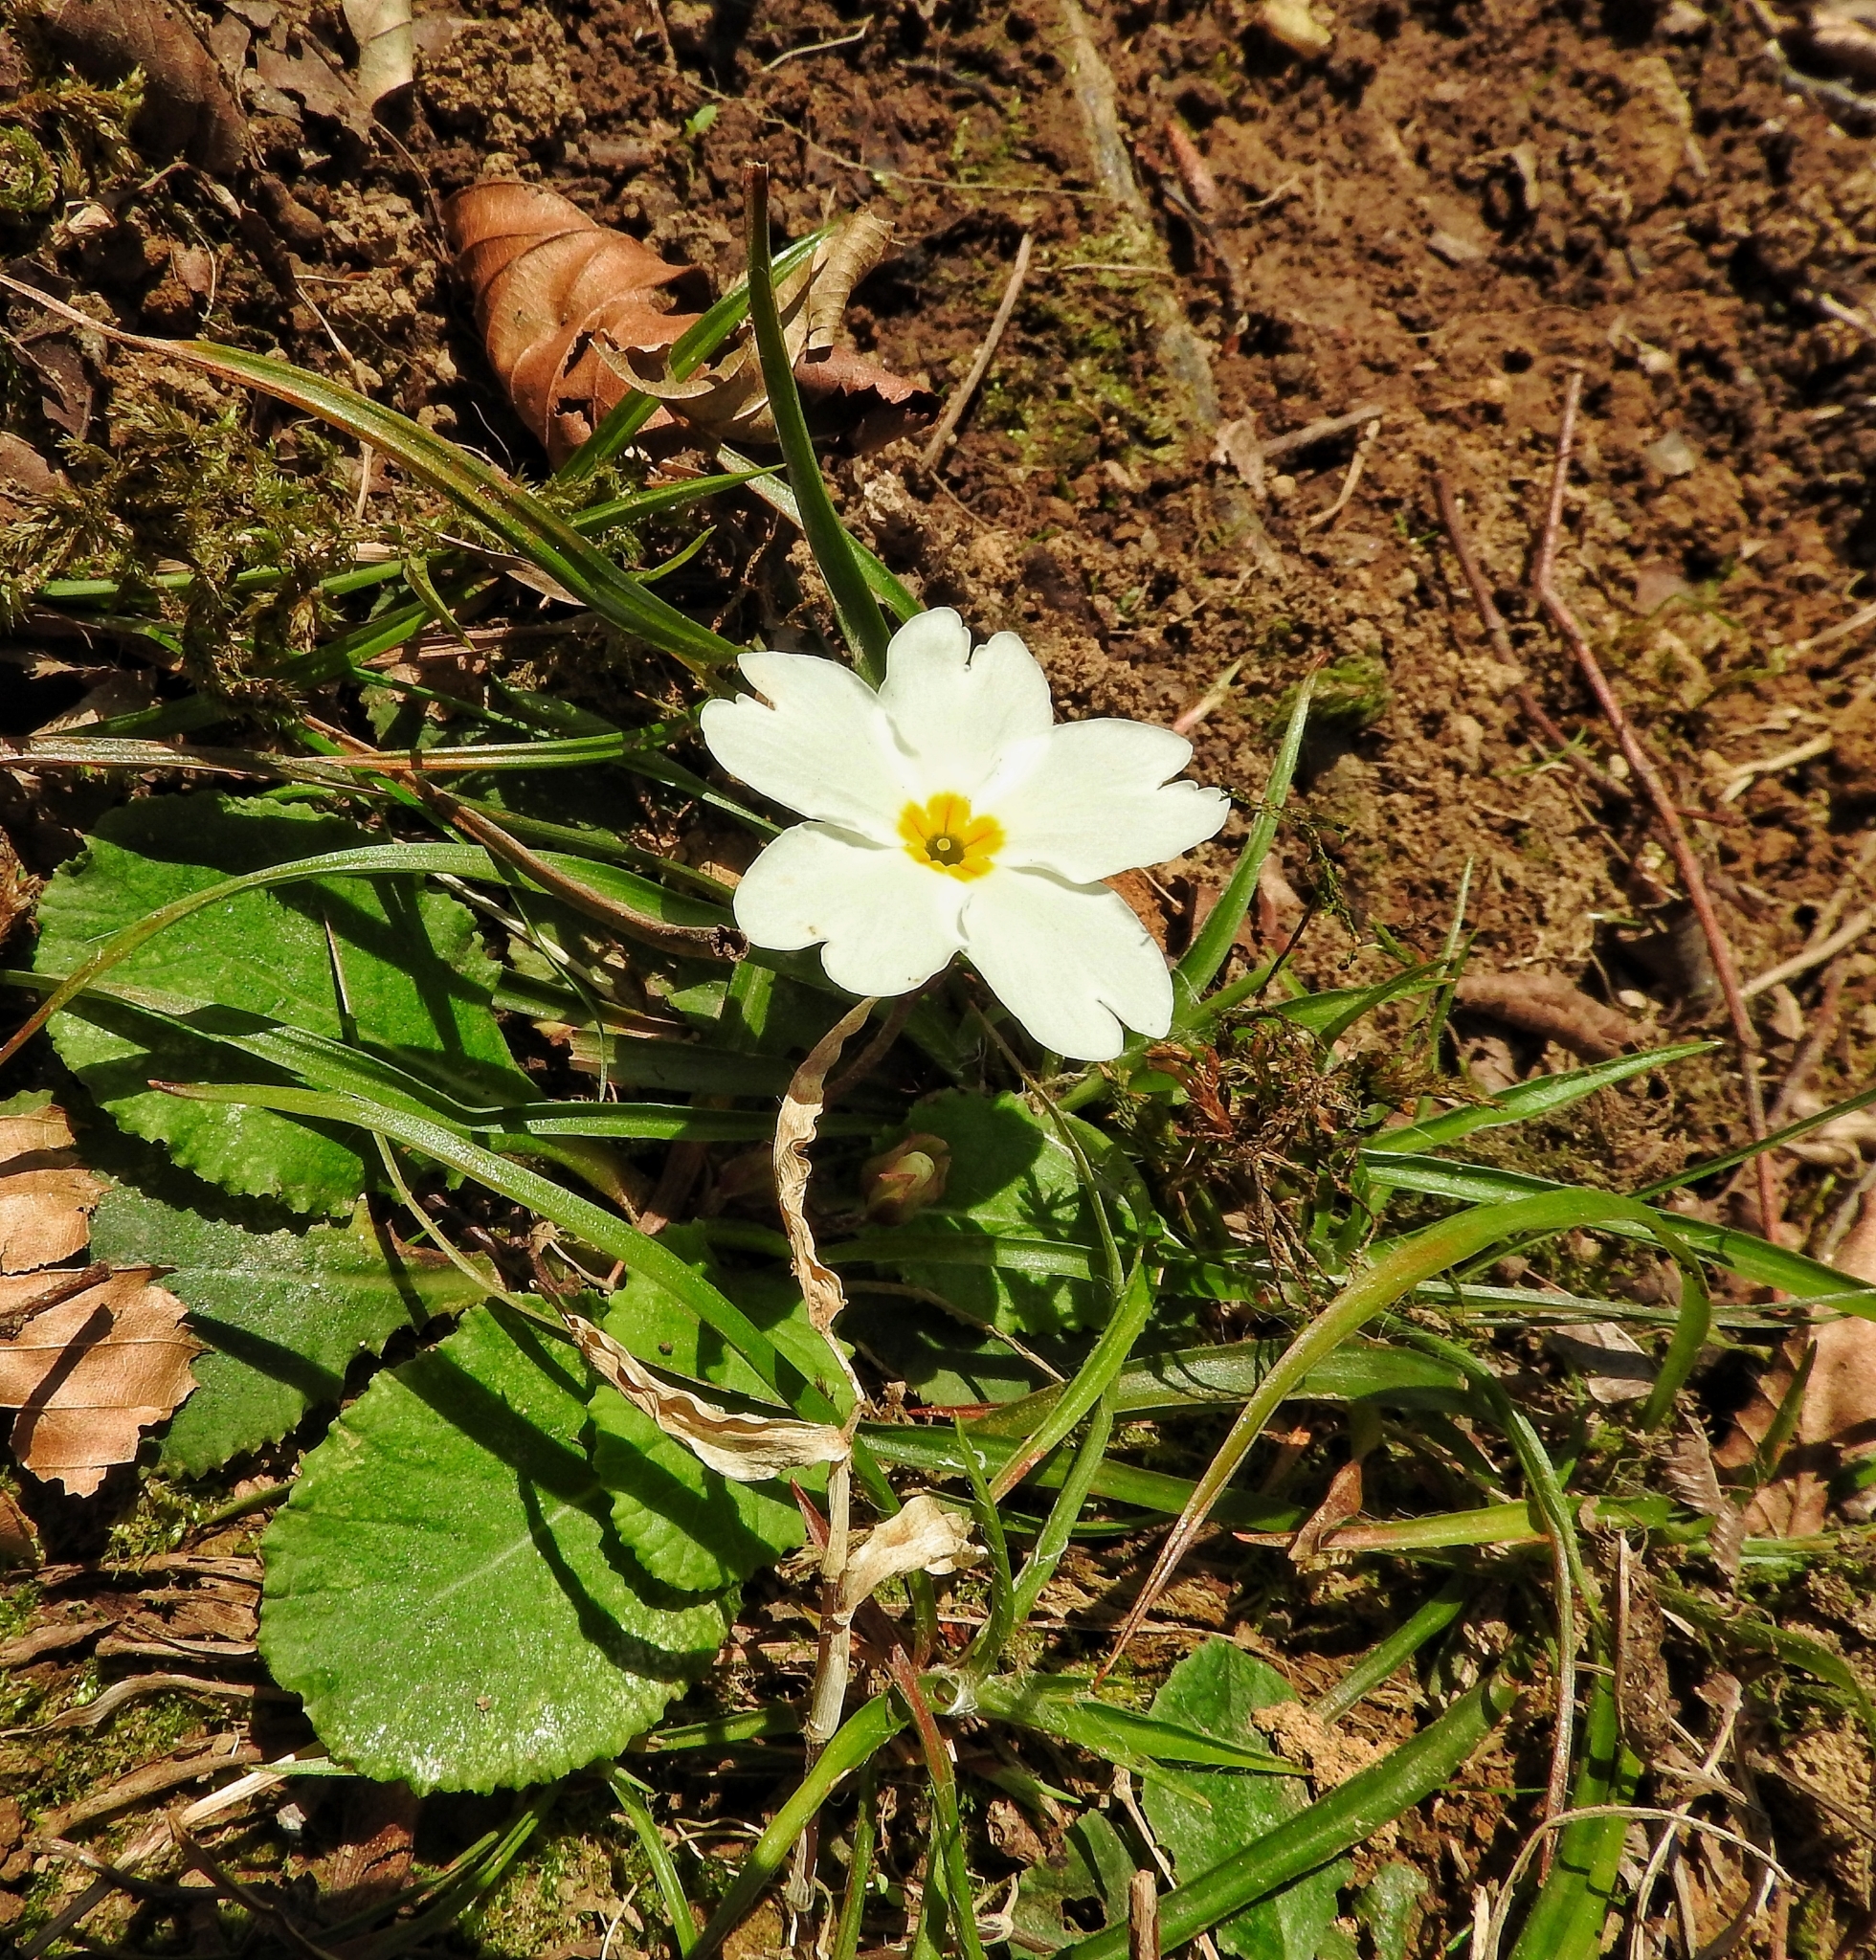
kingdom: Plantae
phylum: Tracheophyta
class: Magnoliopsida
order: Ericales
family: Primulaceae
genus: Primula
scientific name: Primula vulgaris
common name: Primrose
